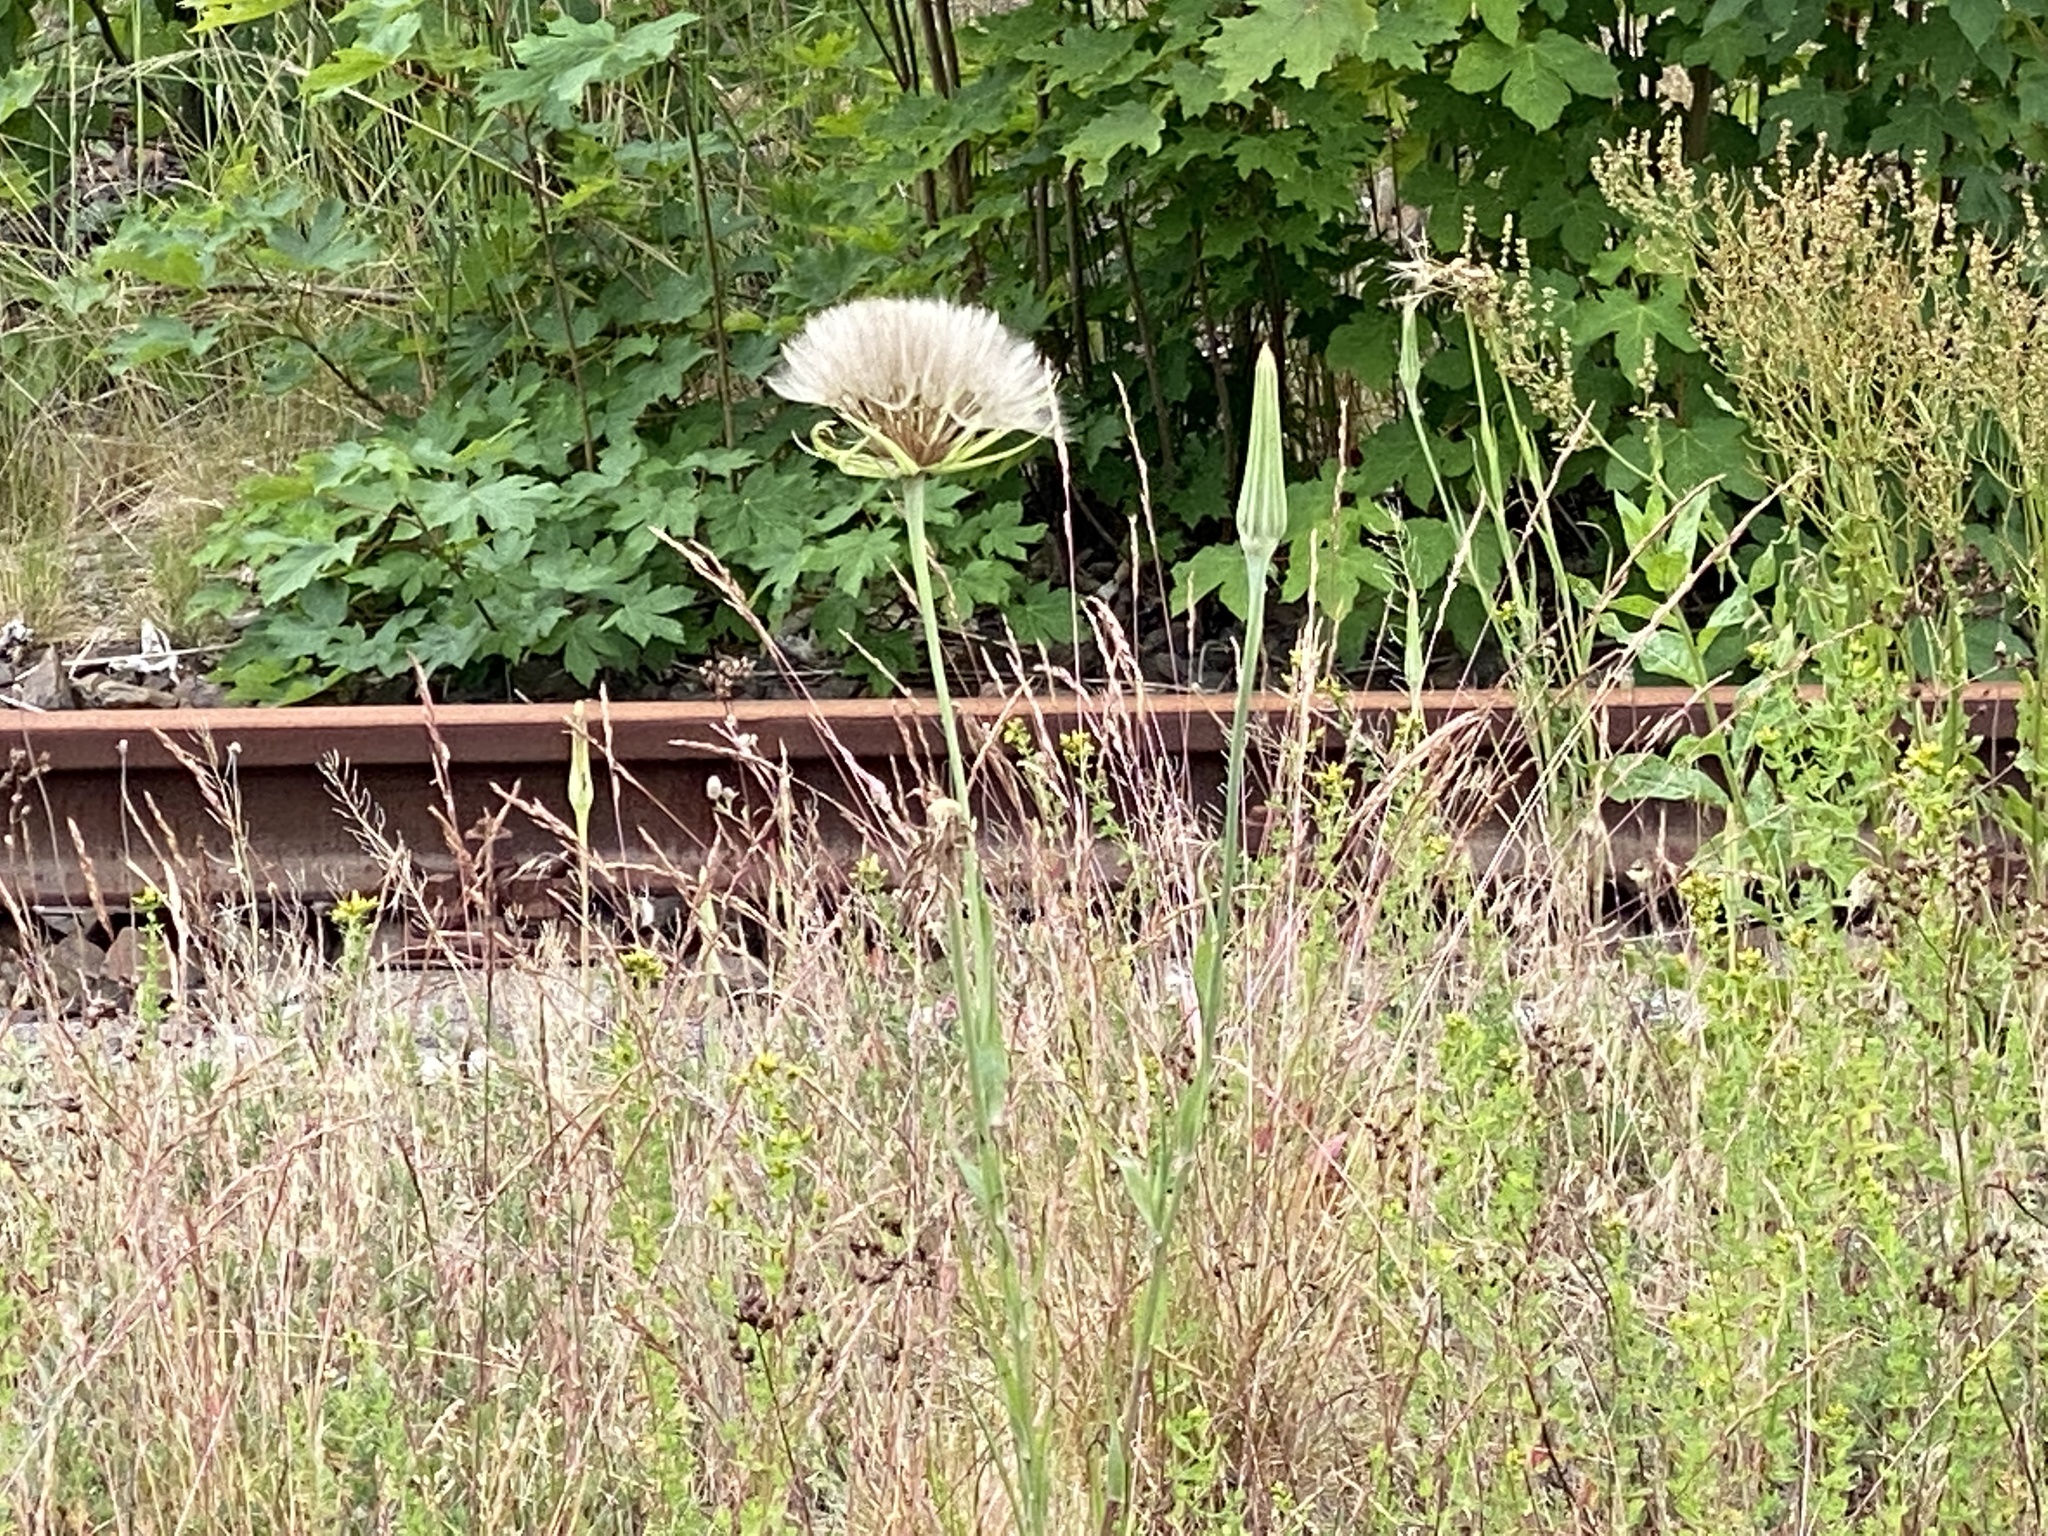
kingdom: Plantae
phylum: Tracheophyta
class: Magnoliopsida
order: Asterales
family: Asteraceae
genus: Tragopogon
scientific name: Tragopogon dubius
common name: Yellow salsify
